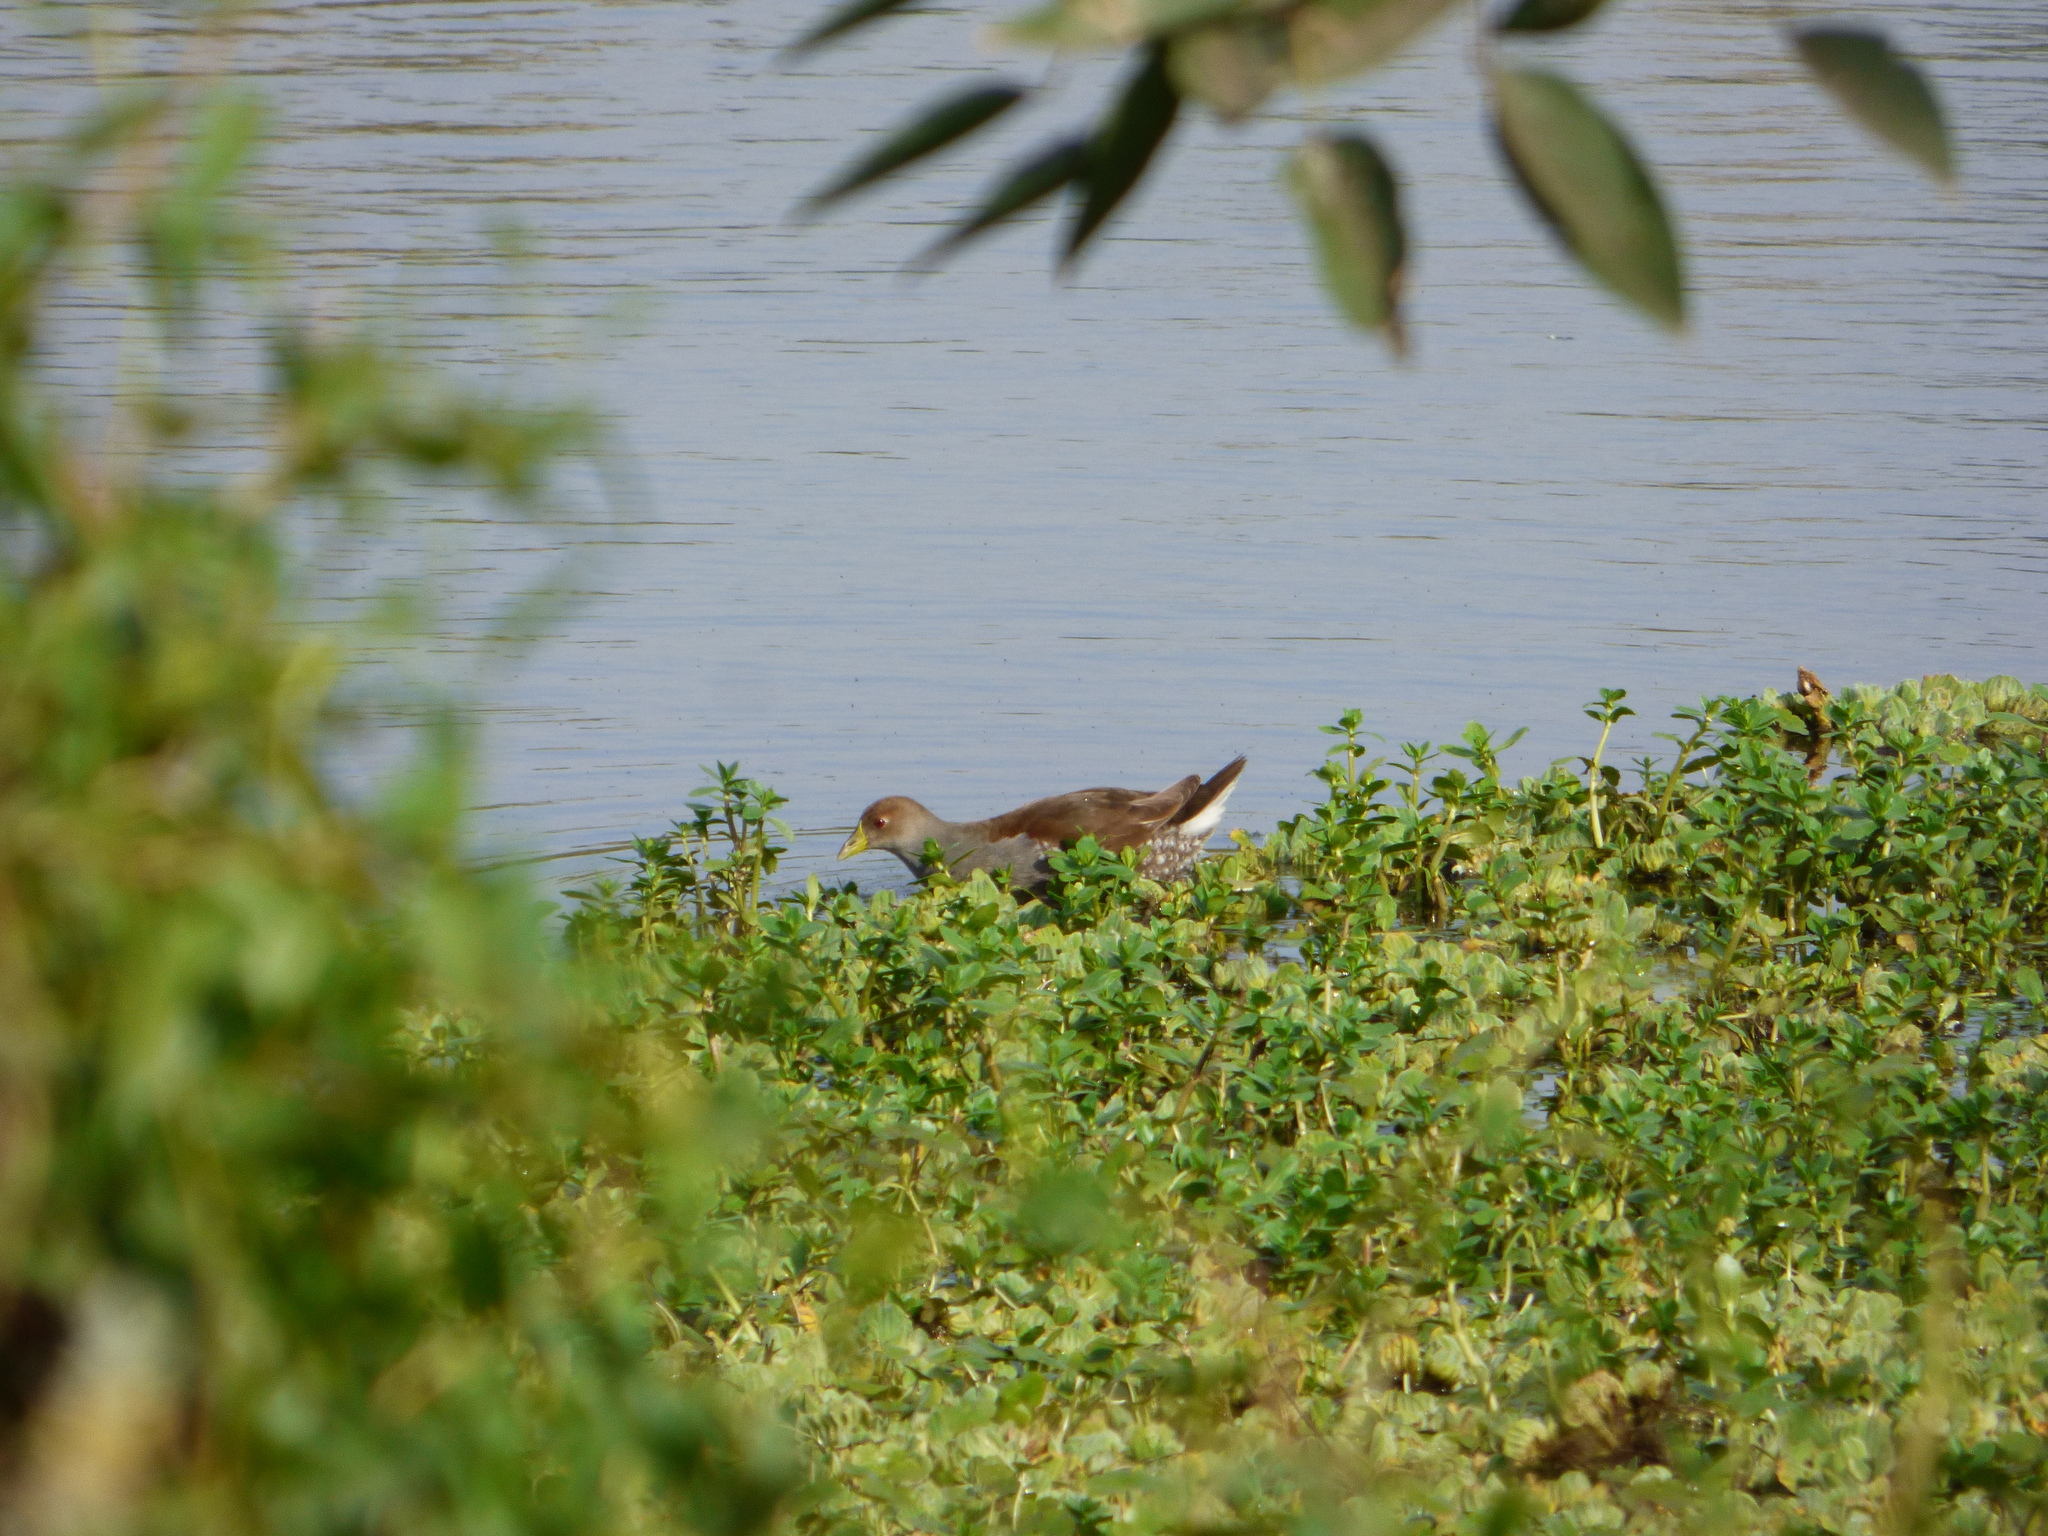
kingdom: Animalia
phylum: Chordata
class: Aves
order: Gruiformes
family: Rallidae
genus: Gallinula
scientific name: Gallinula melanops
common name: Spot-flanked gallinule
